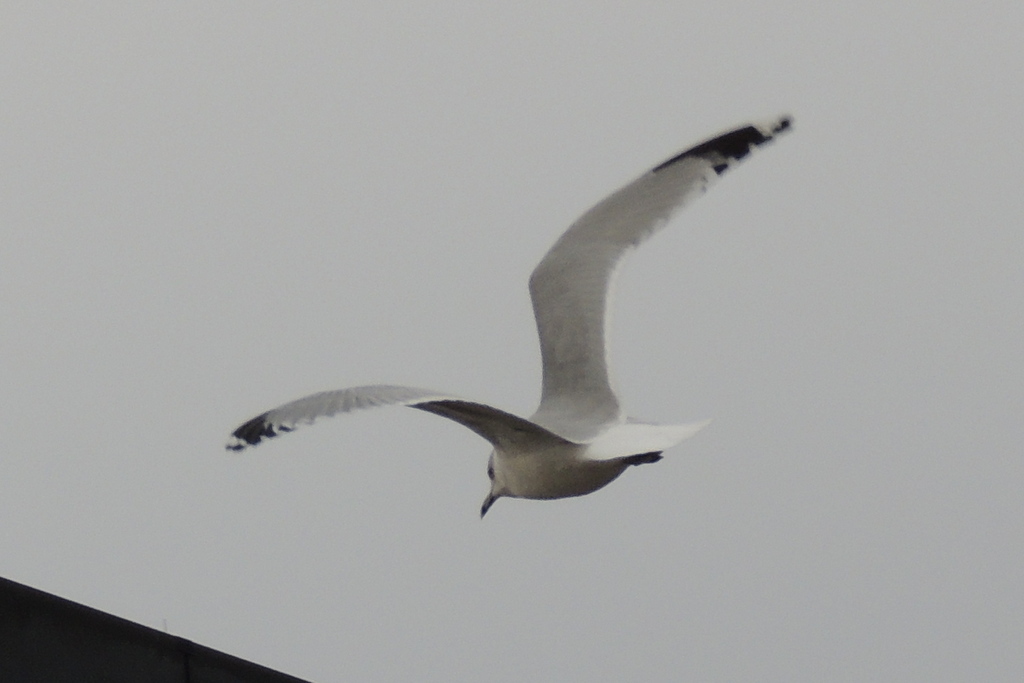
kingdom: Animalia
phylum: Chordata
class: Aves
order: Charadriiformes
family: Laridae
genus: Larus
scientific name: Larus delawarensis
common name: Ring-billed gull
